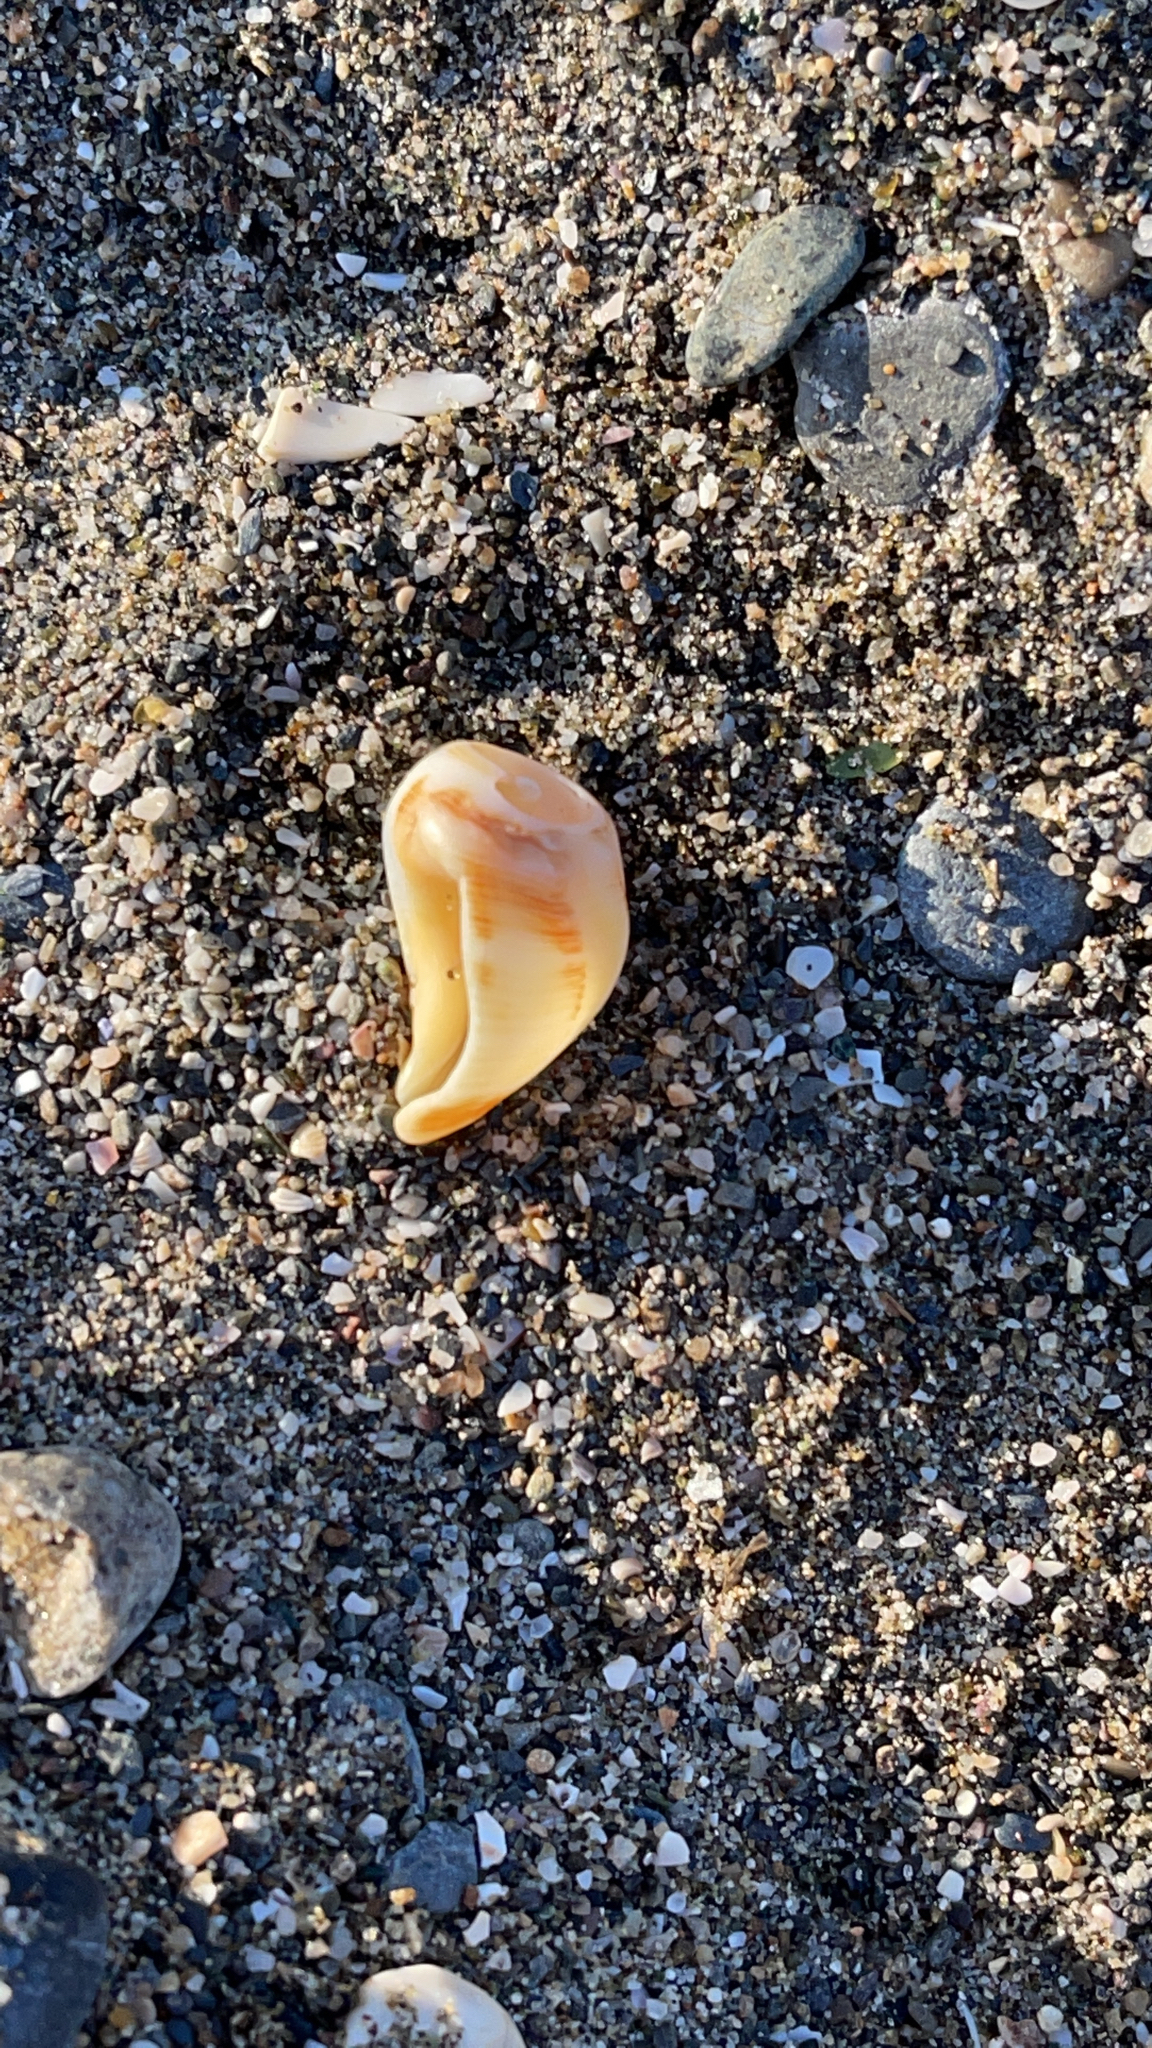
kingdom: Animalia
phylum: Mollusca
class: Gastropoda
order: Neogastropoda
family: Muricidae
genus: Stramonita
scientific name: Stramonita haemastoma
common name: Florida dog winkle
